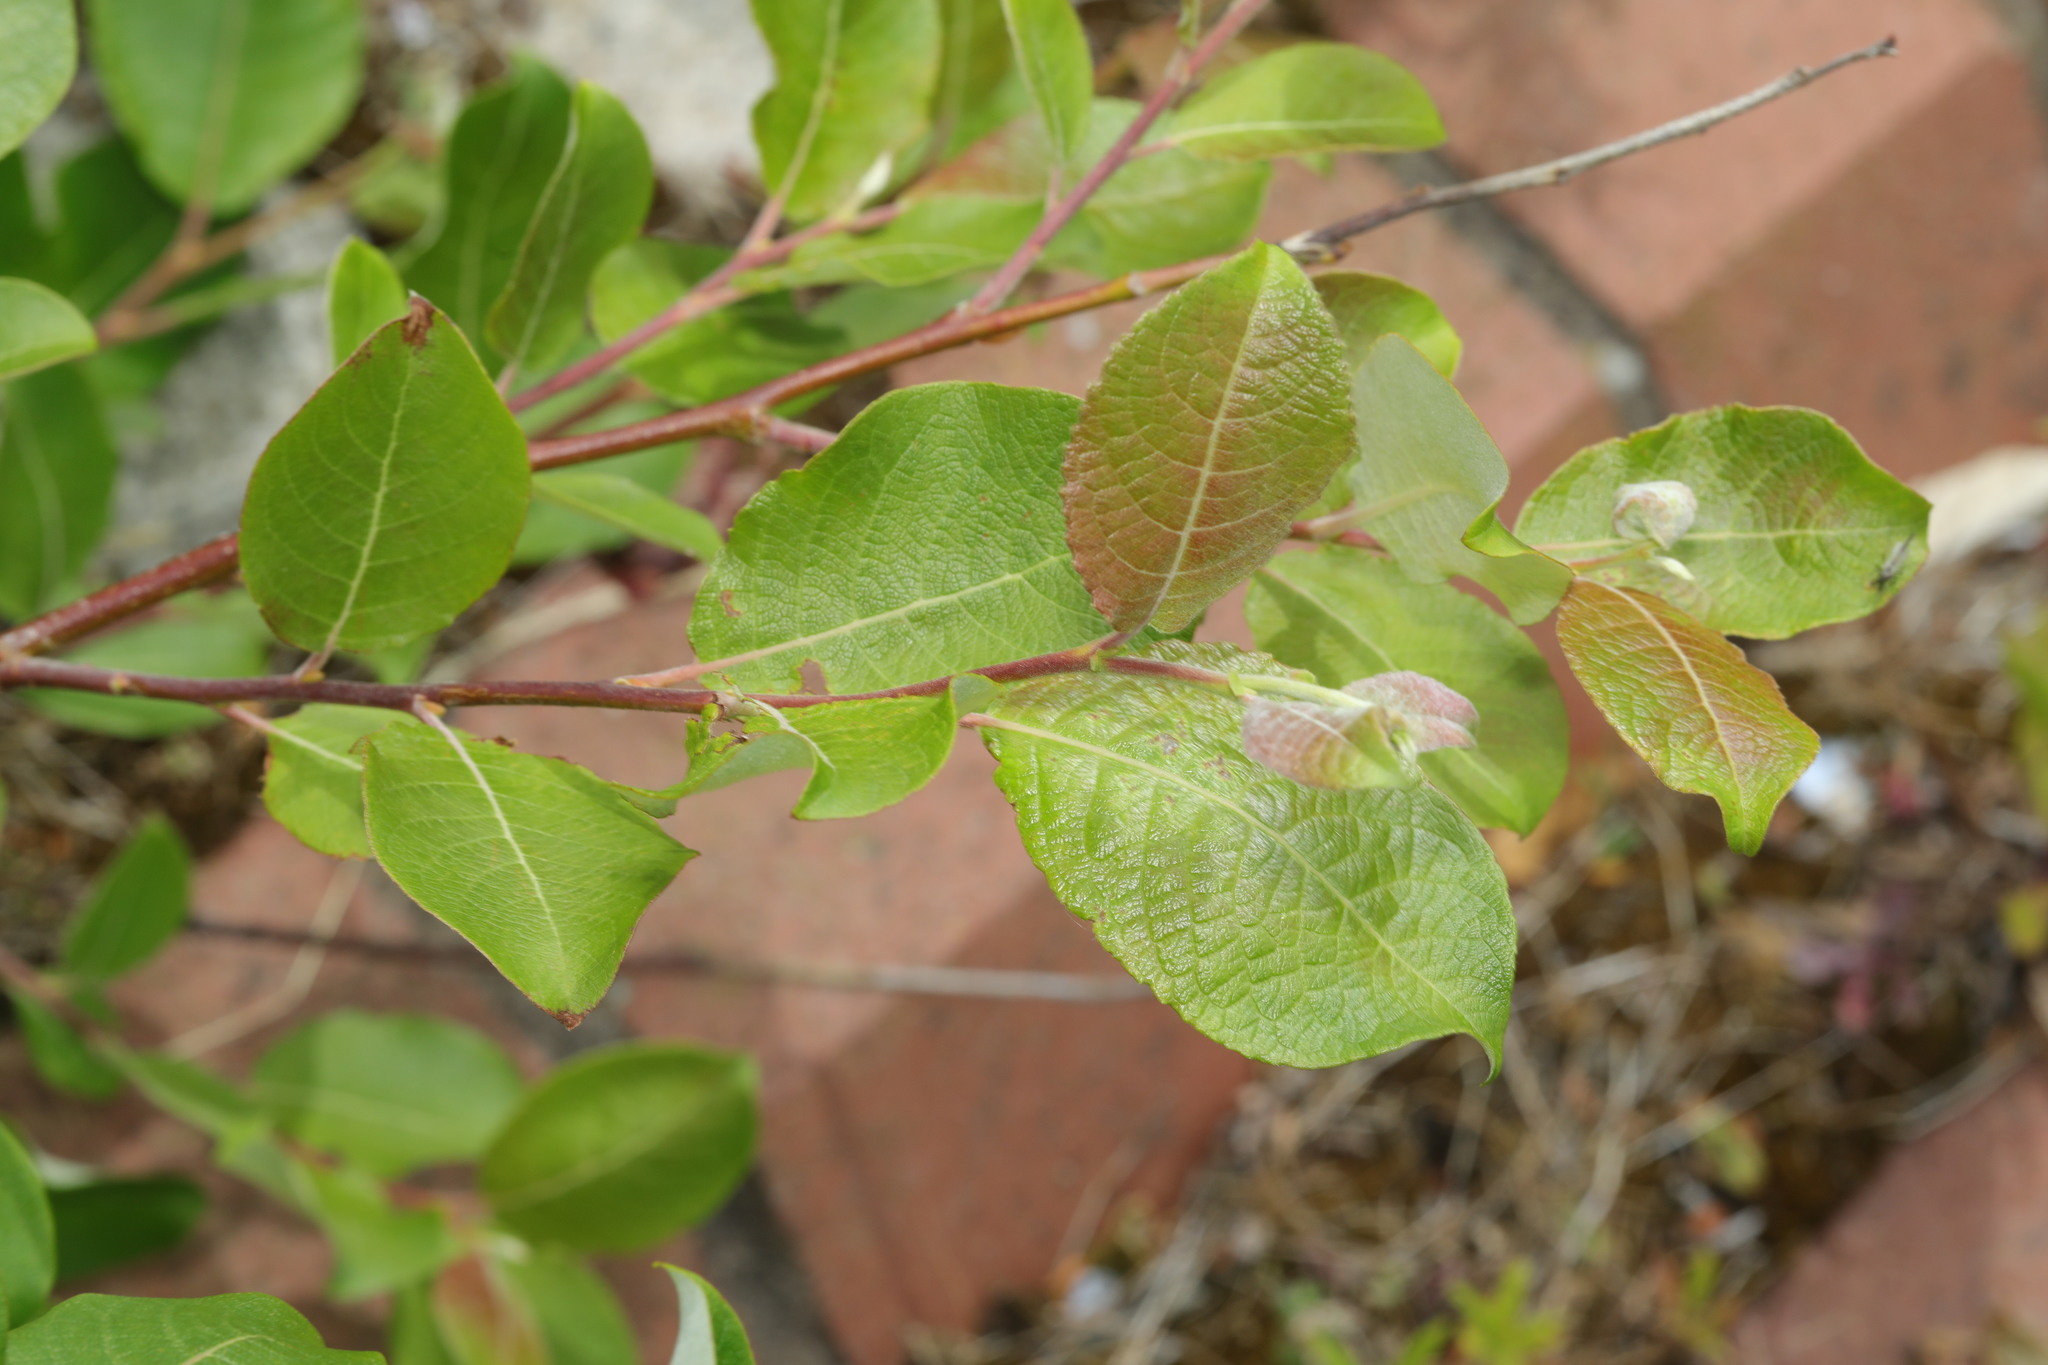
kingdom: Plantae
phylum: Tracheophyta
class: Magnoliopsida
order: Malpighiales
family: Salicaceae
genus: Salix
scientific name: Salix caprea
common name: Goat willow
